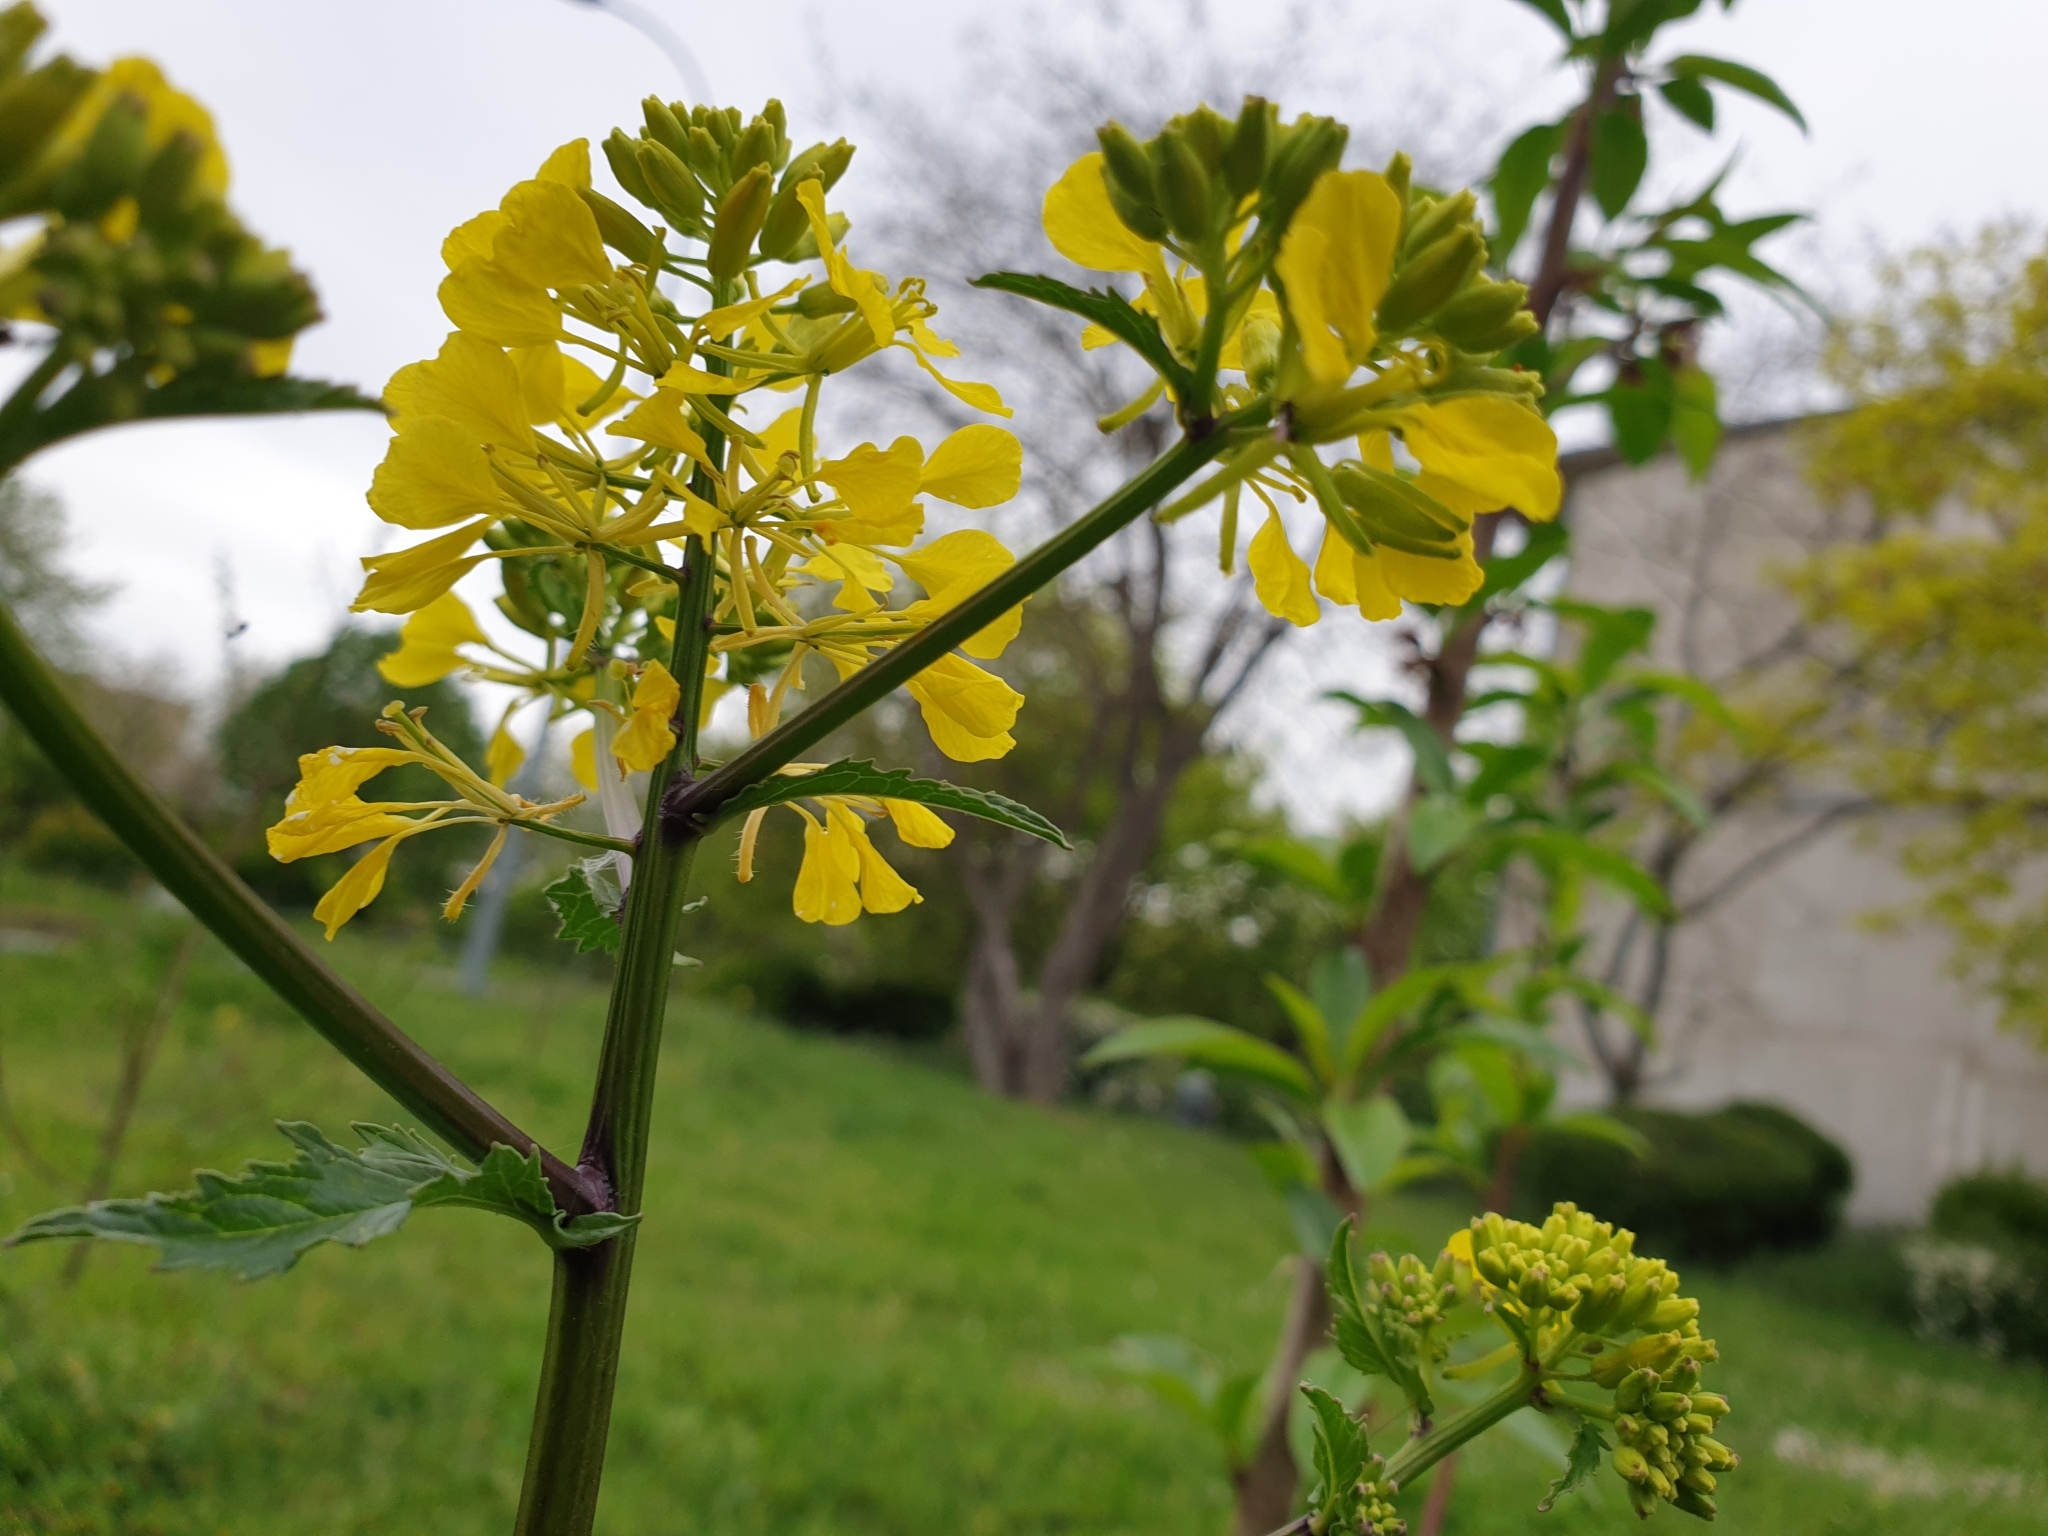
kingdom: Plantae
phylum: Tracheophyta
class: Magnoliopsida
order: Brassicales
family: Brassicaceae
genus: Sinapis
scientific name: Sinapis arvensis
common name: Charlock
